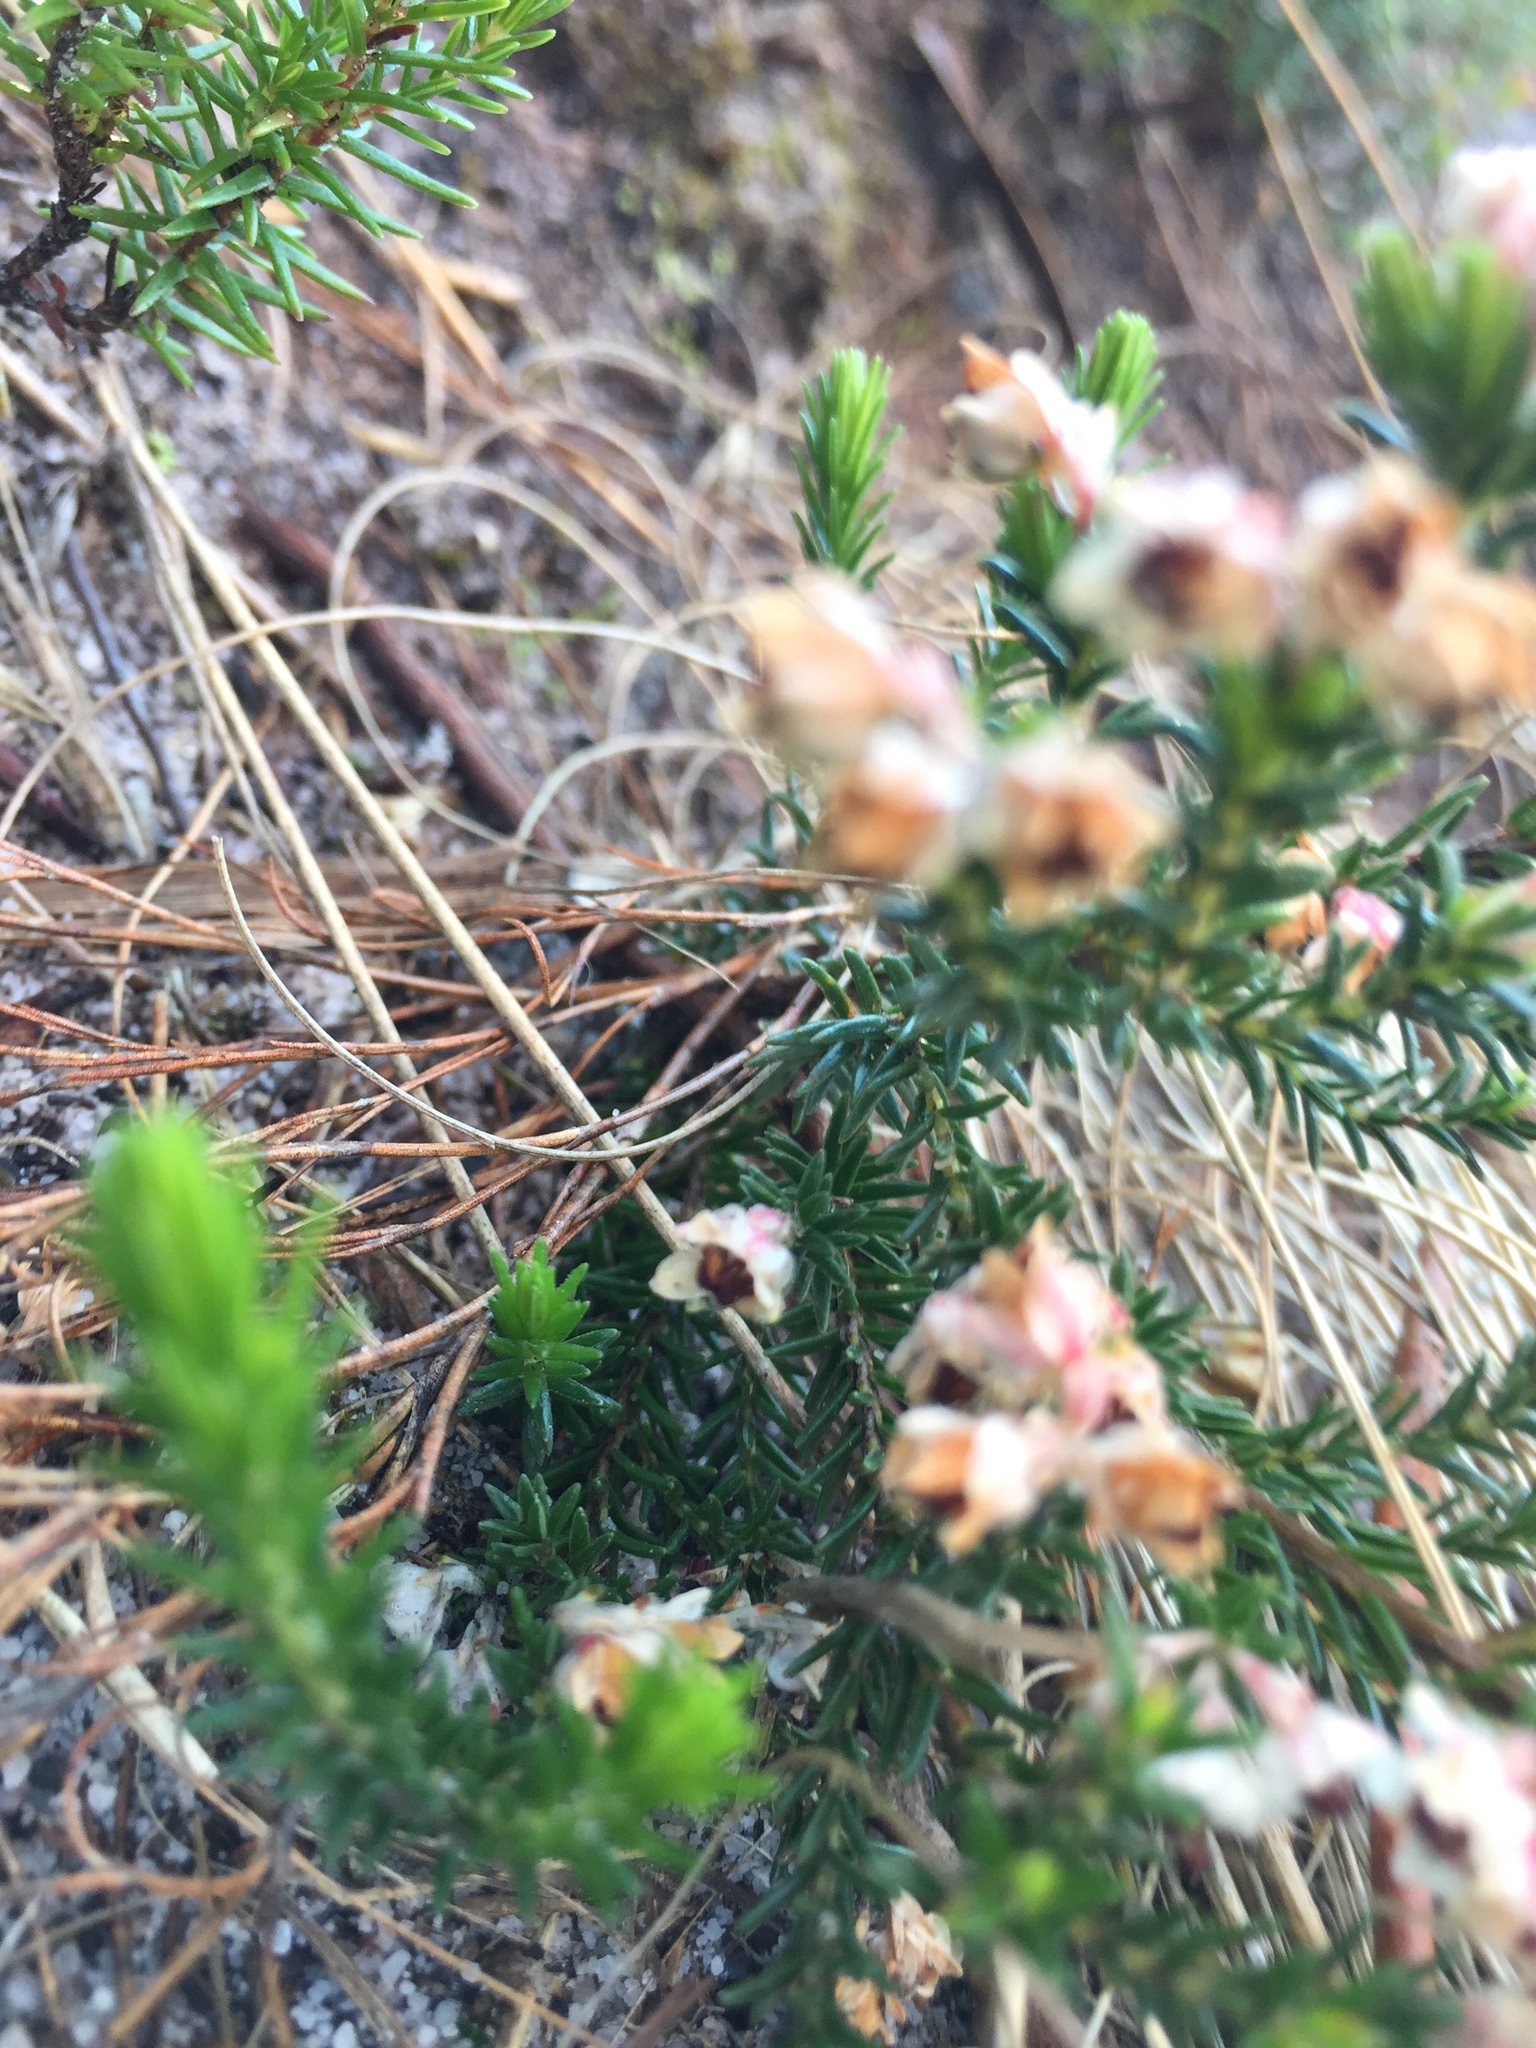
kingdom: Plantae
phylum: Tracheophyta
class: Magnoliopsida
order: Ericales
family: Ericaceae
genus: Erica
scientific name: Erica articularis
